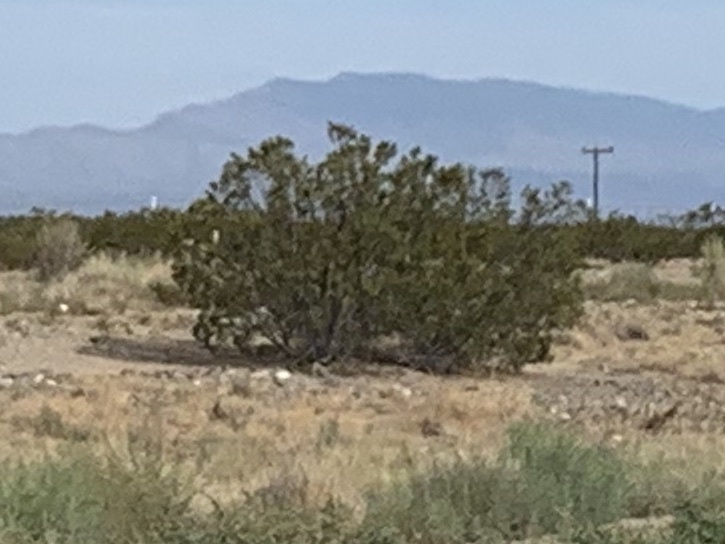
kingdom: Plantae
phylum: Tracheophyta
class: Magnoliopsida
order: Zygophyllales
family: Zygophyllaceae
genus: Larrea
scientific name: Larrea tridentata
